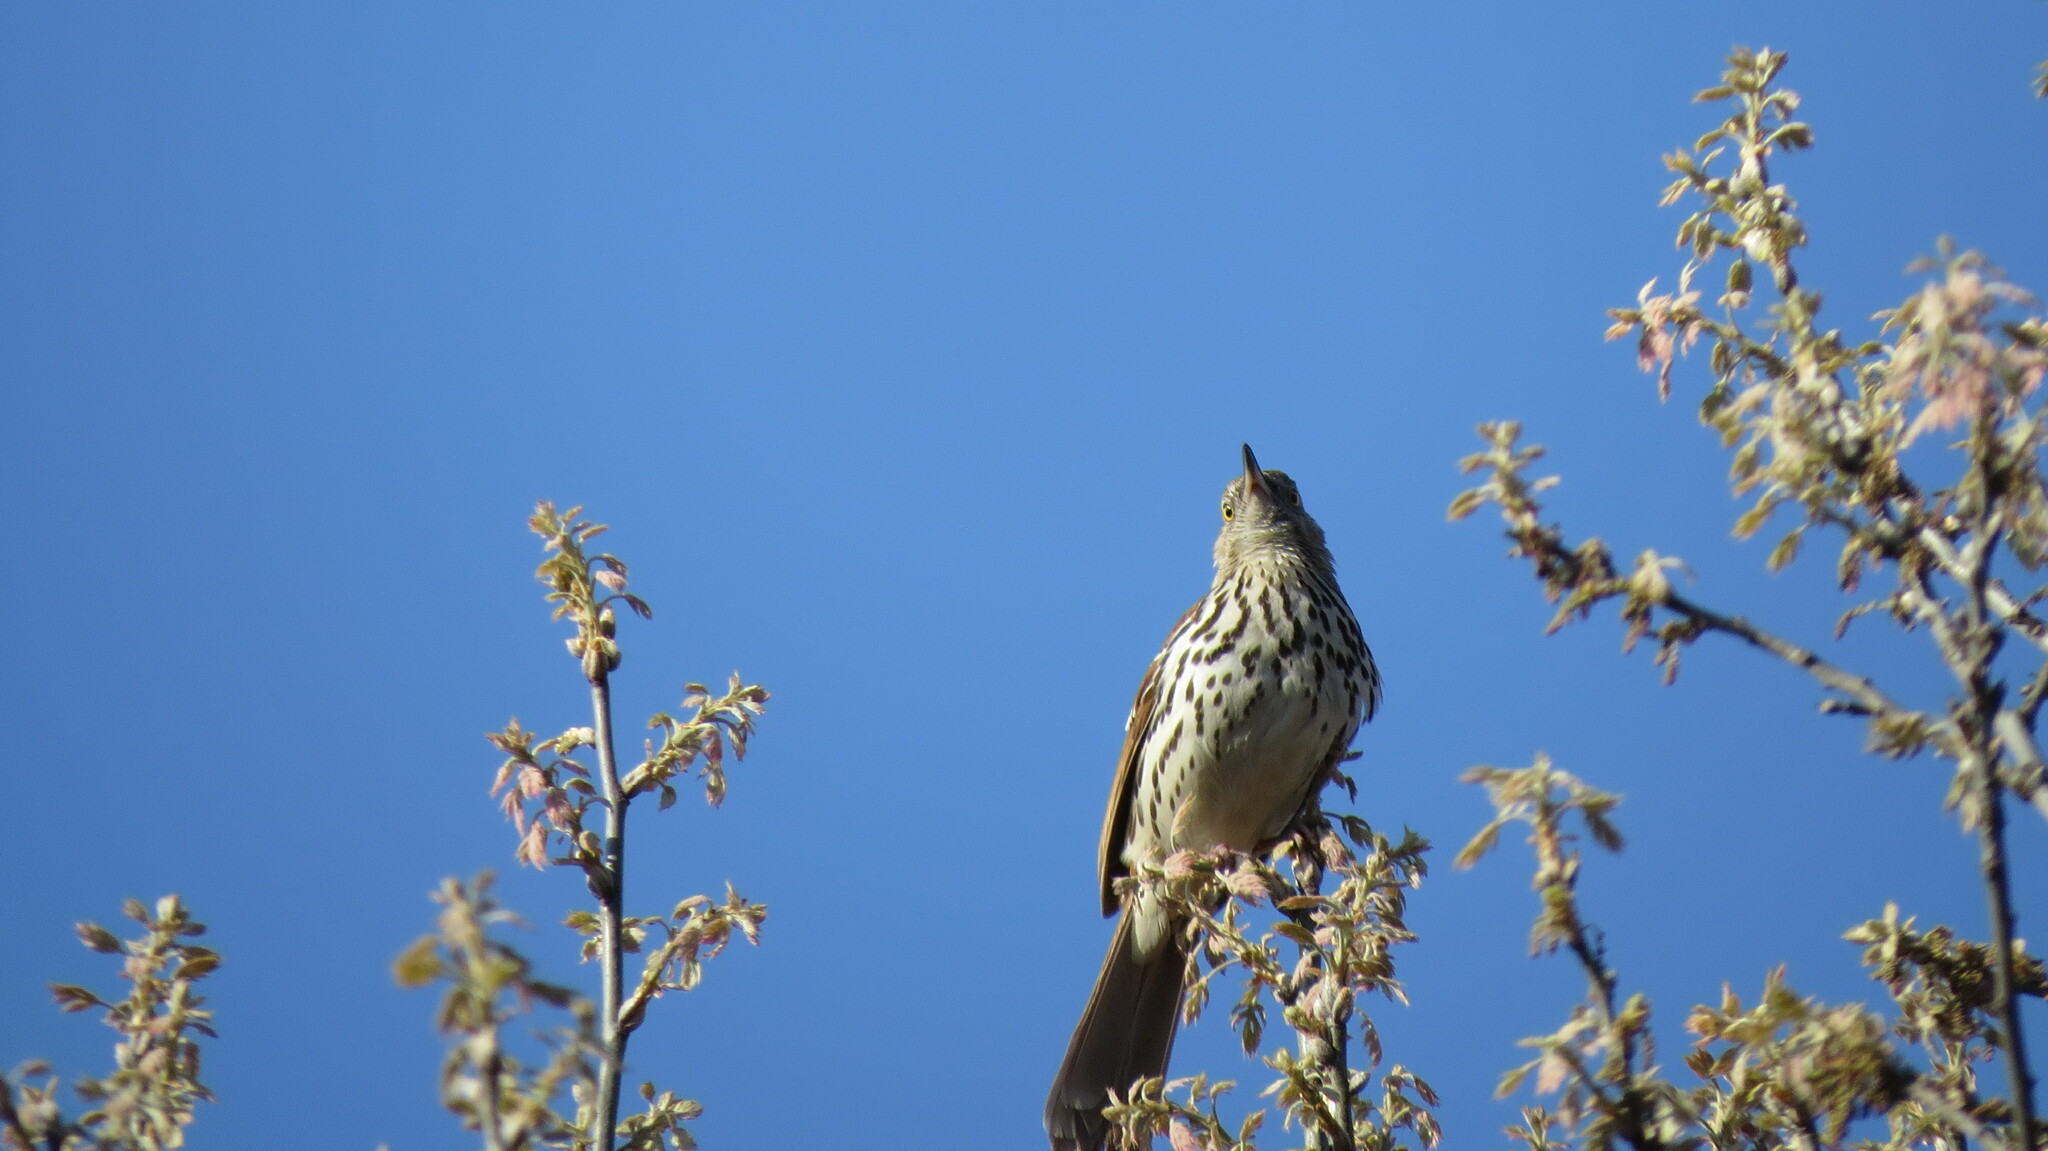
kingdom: Animalia
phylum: Chordata
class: Aves
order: Passeriformes
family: Mimidae
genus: Toxostoma
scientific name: Toxostoma rufum
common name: Brown thrasher
